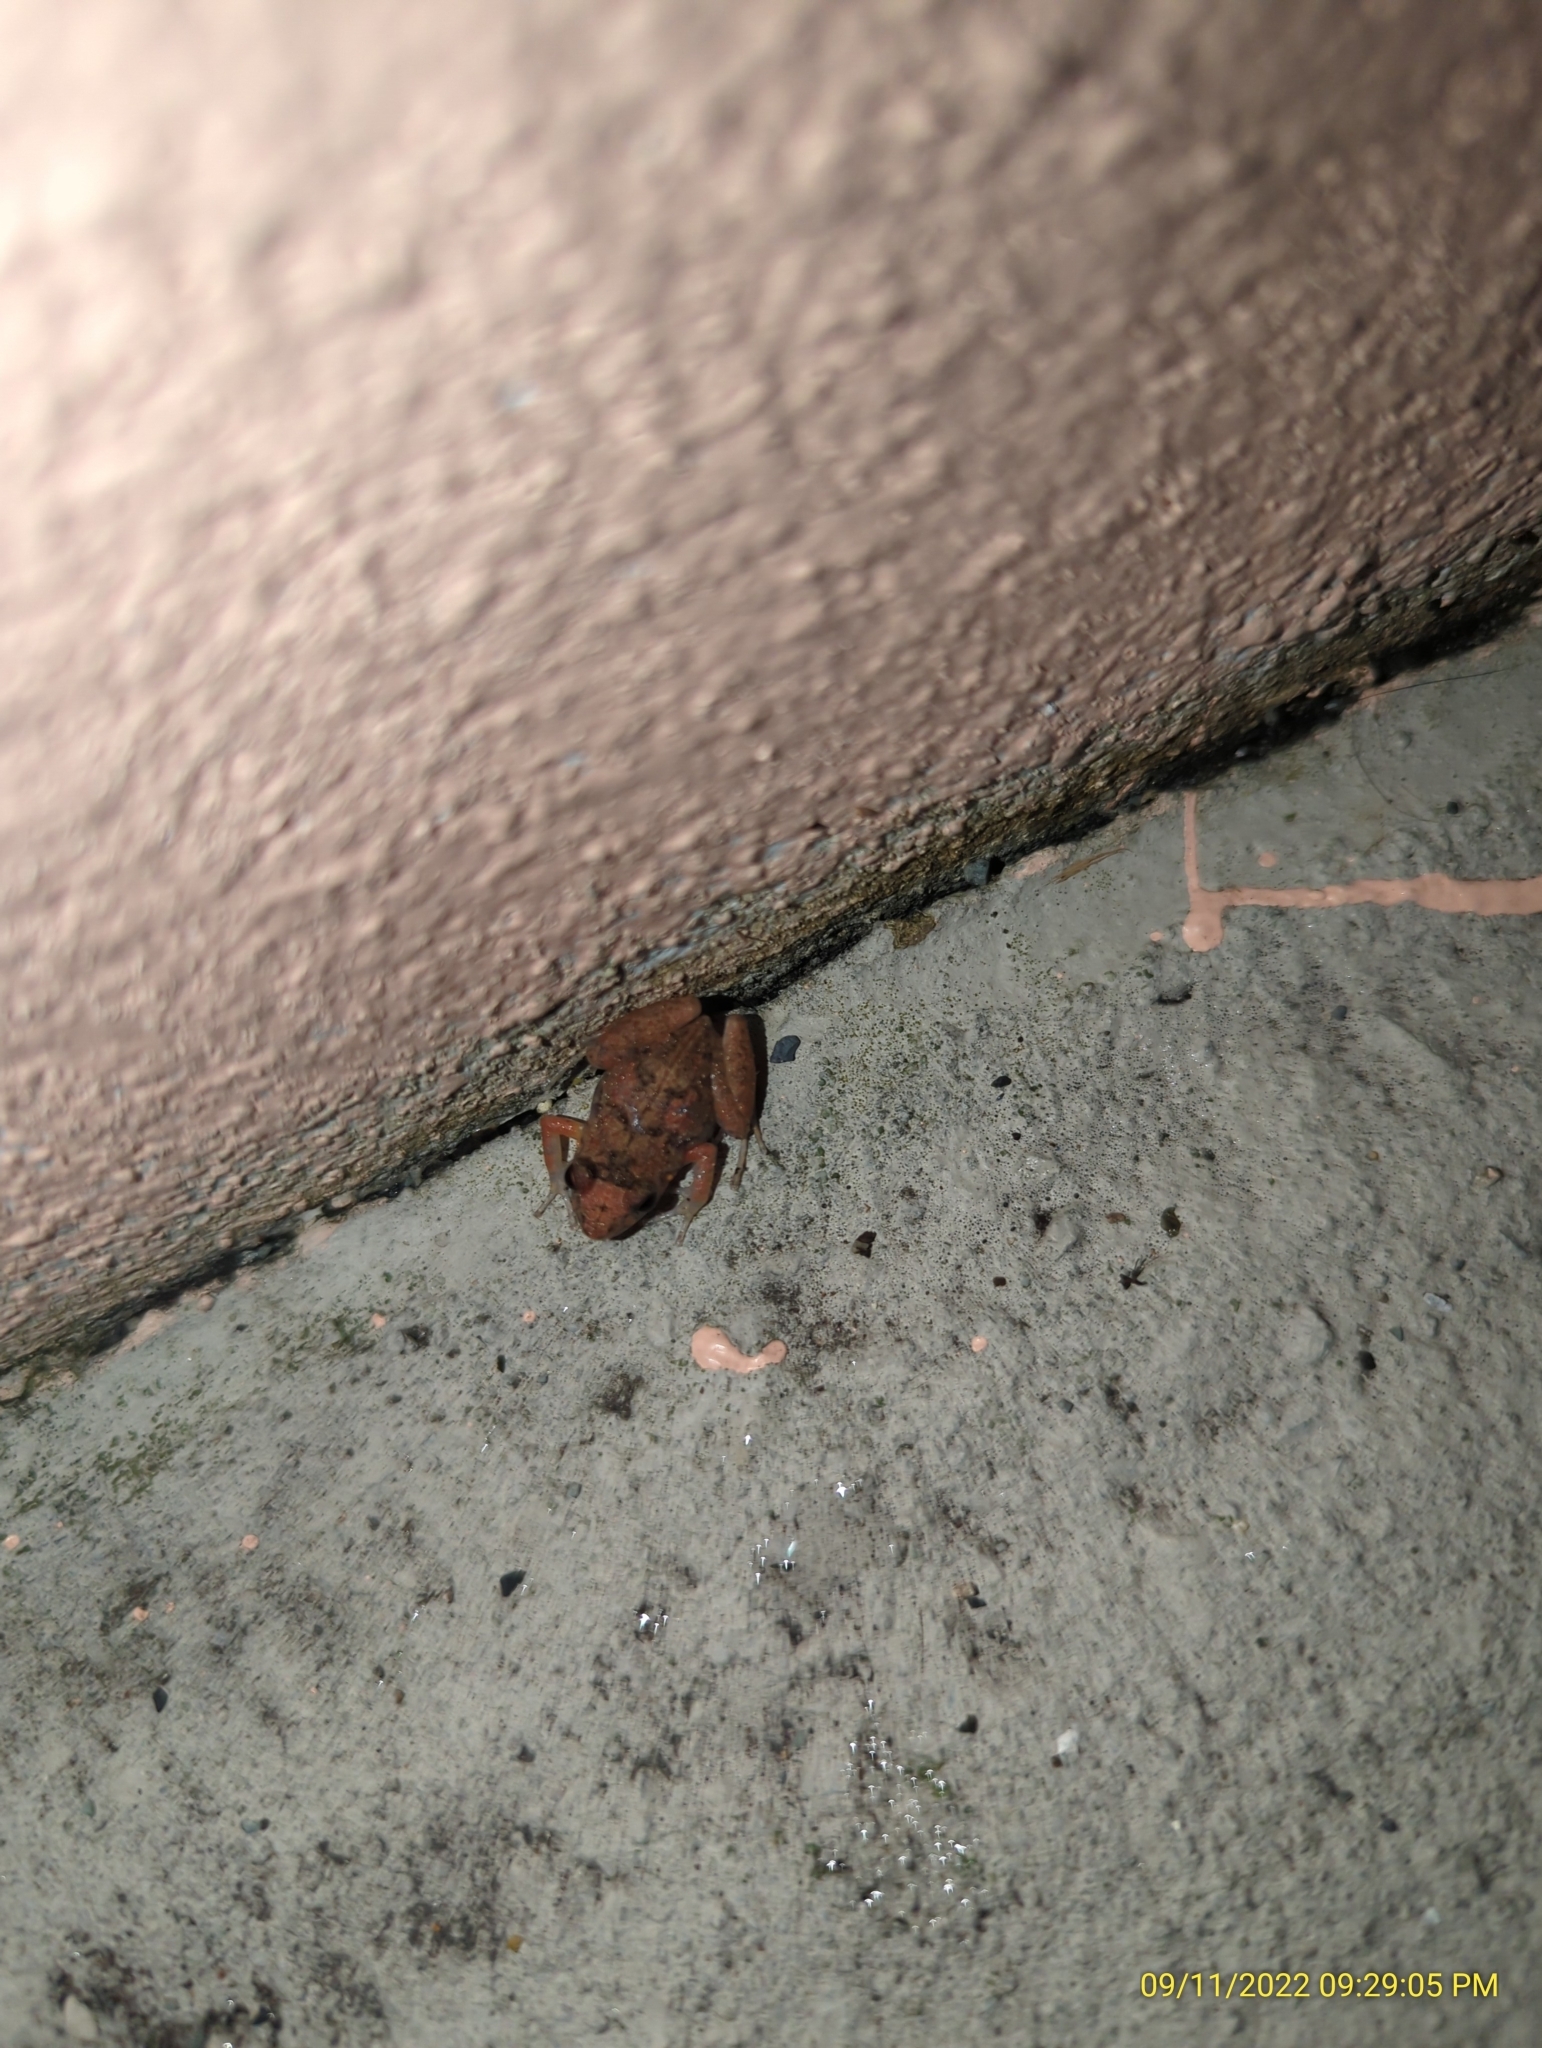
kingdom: Animalia
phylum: Chordata
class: Amphibia
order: Anura
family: Eleutherodactylidae
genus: Eleutherodactylus
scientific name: Eleutherodactylus planirostris
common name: Greenhouse frog
